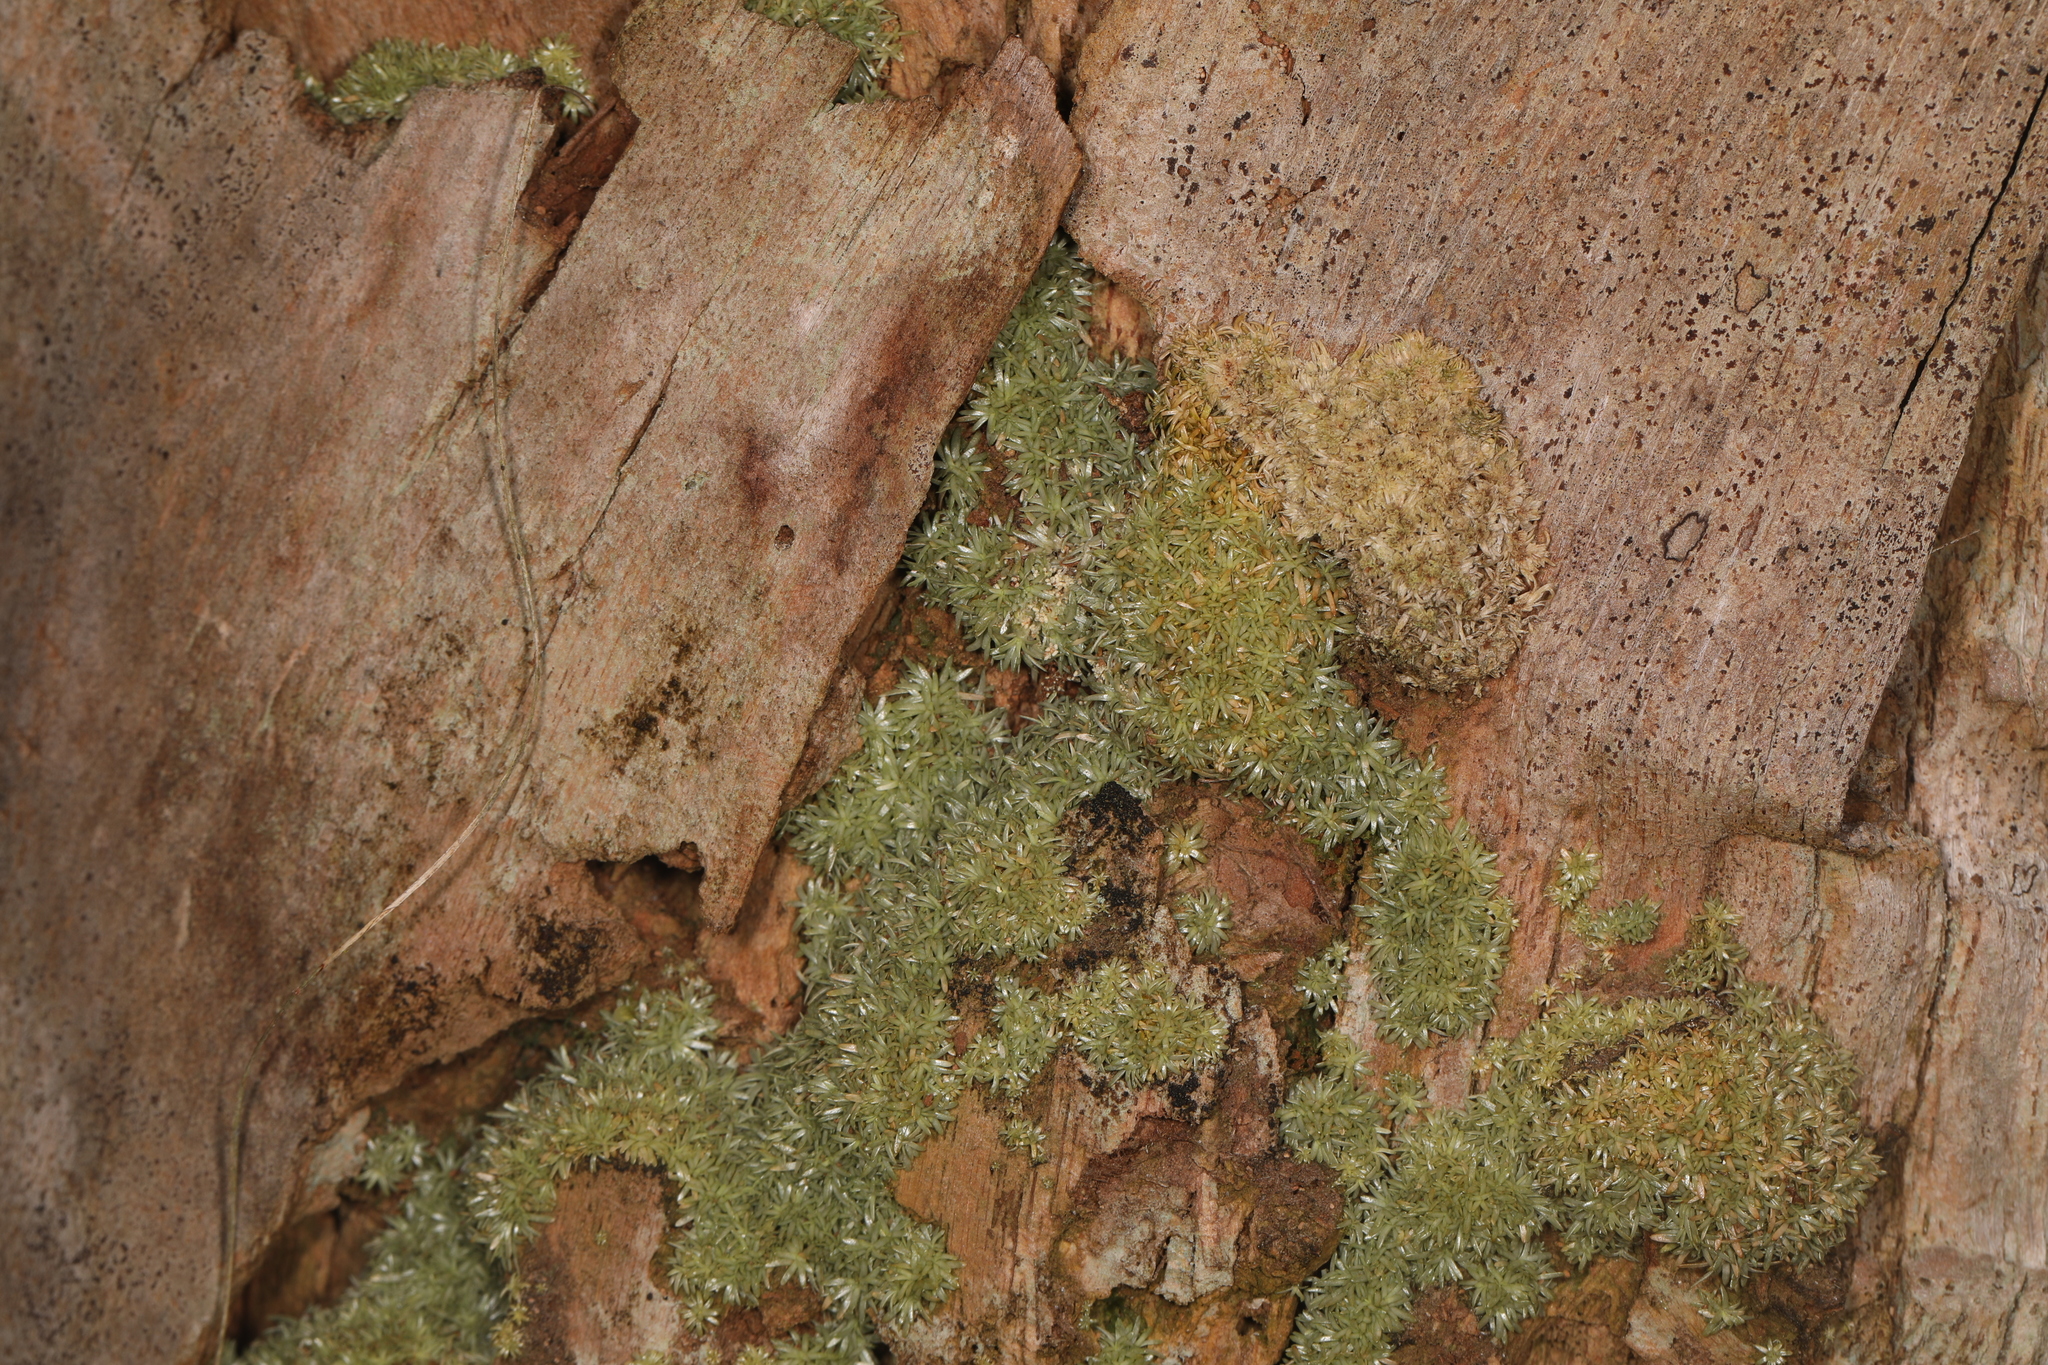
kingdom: Plantae
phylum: Bryophyta
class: Bryopsida
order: Dicranales
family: Octoblepharaceae
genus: Octoblepharum
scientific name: Octoblepharum albidum
